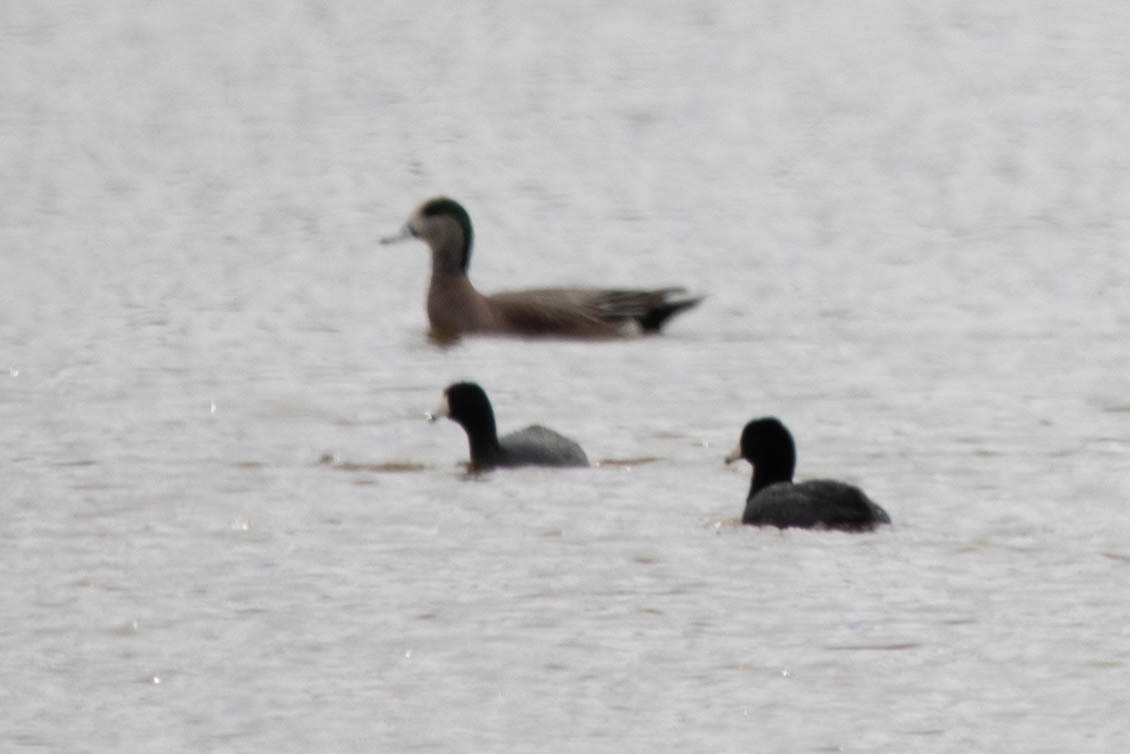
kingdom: Animalia
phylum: Chordata
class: Aves
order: Gruiformes
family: Rallidae
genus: Fulica
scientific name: Fulica americana
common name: American coot
